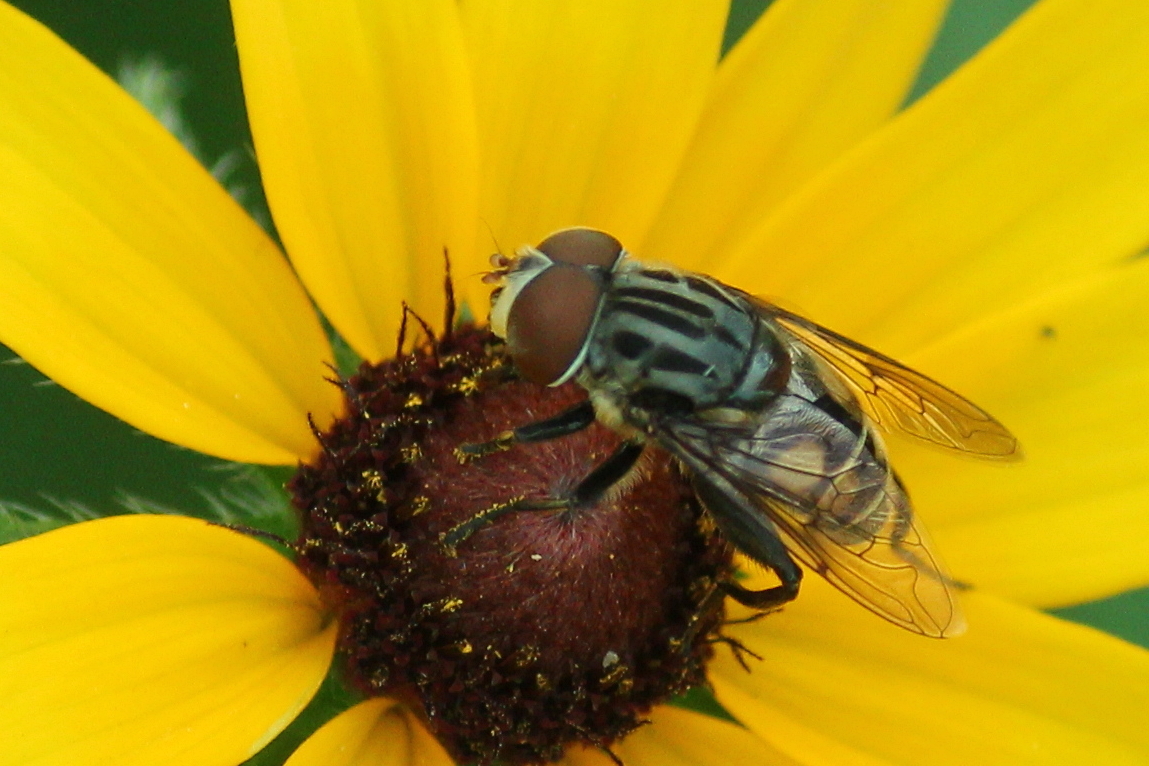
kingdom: Animalia
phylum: Arthropoda
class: Insecta
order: Diptera
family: Syrphidae
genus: Palpada
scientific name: Palpada furcata
